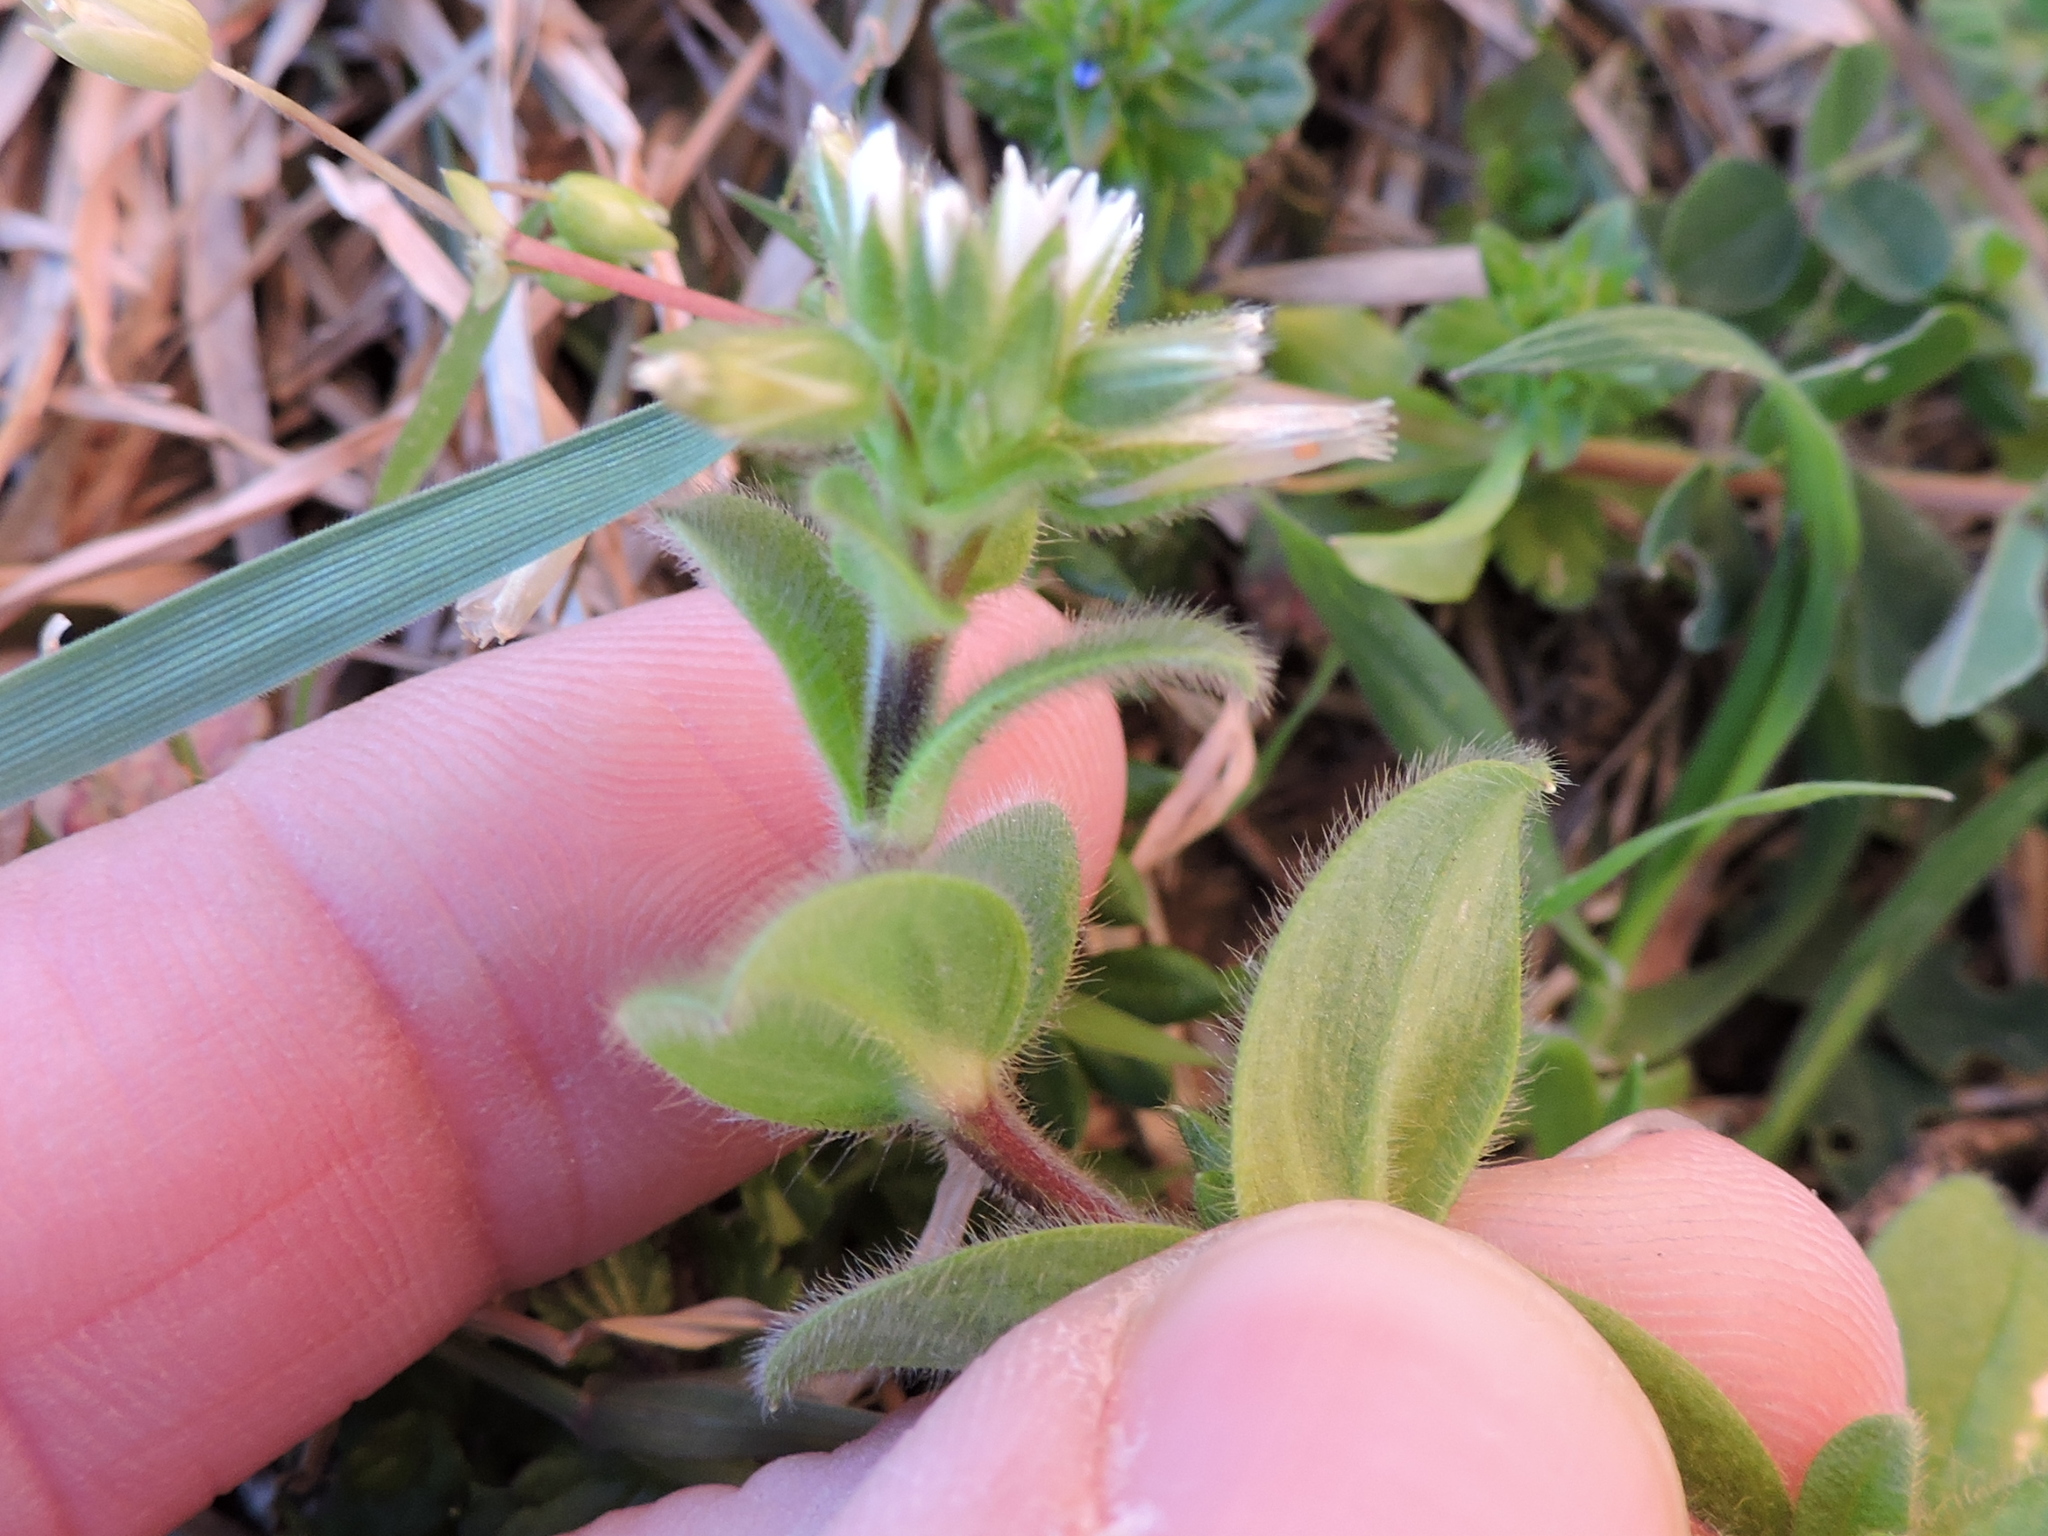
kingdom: Plantae
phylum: Tracheophyta
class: Magnoliopsida
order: Caryophyllales
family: Caryophyllaceae
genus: Cerastium
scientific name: Cerastium glomeratum
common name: Sticky chickweed
